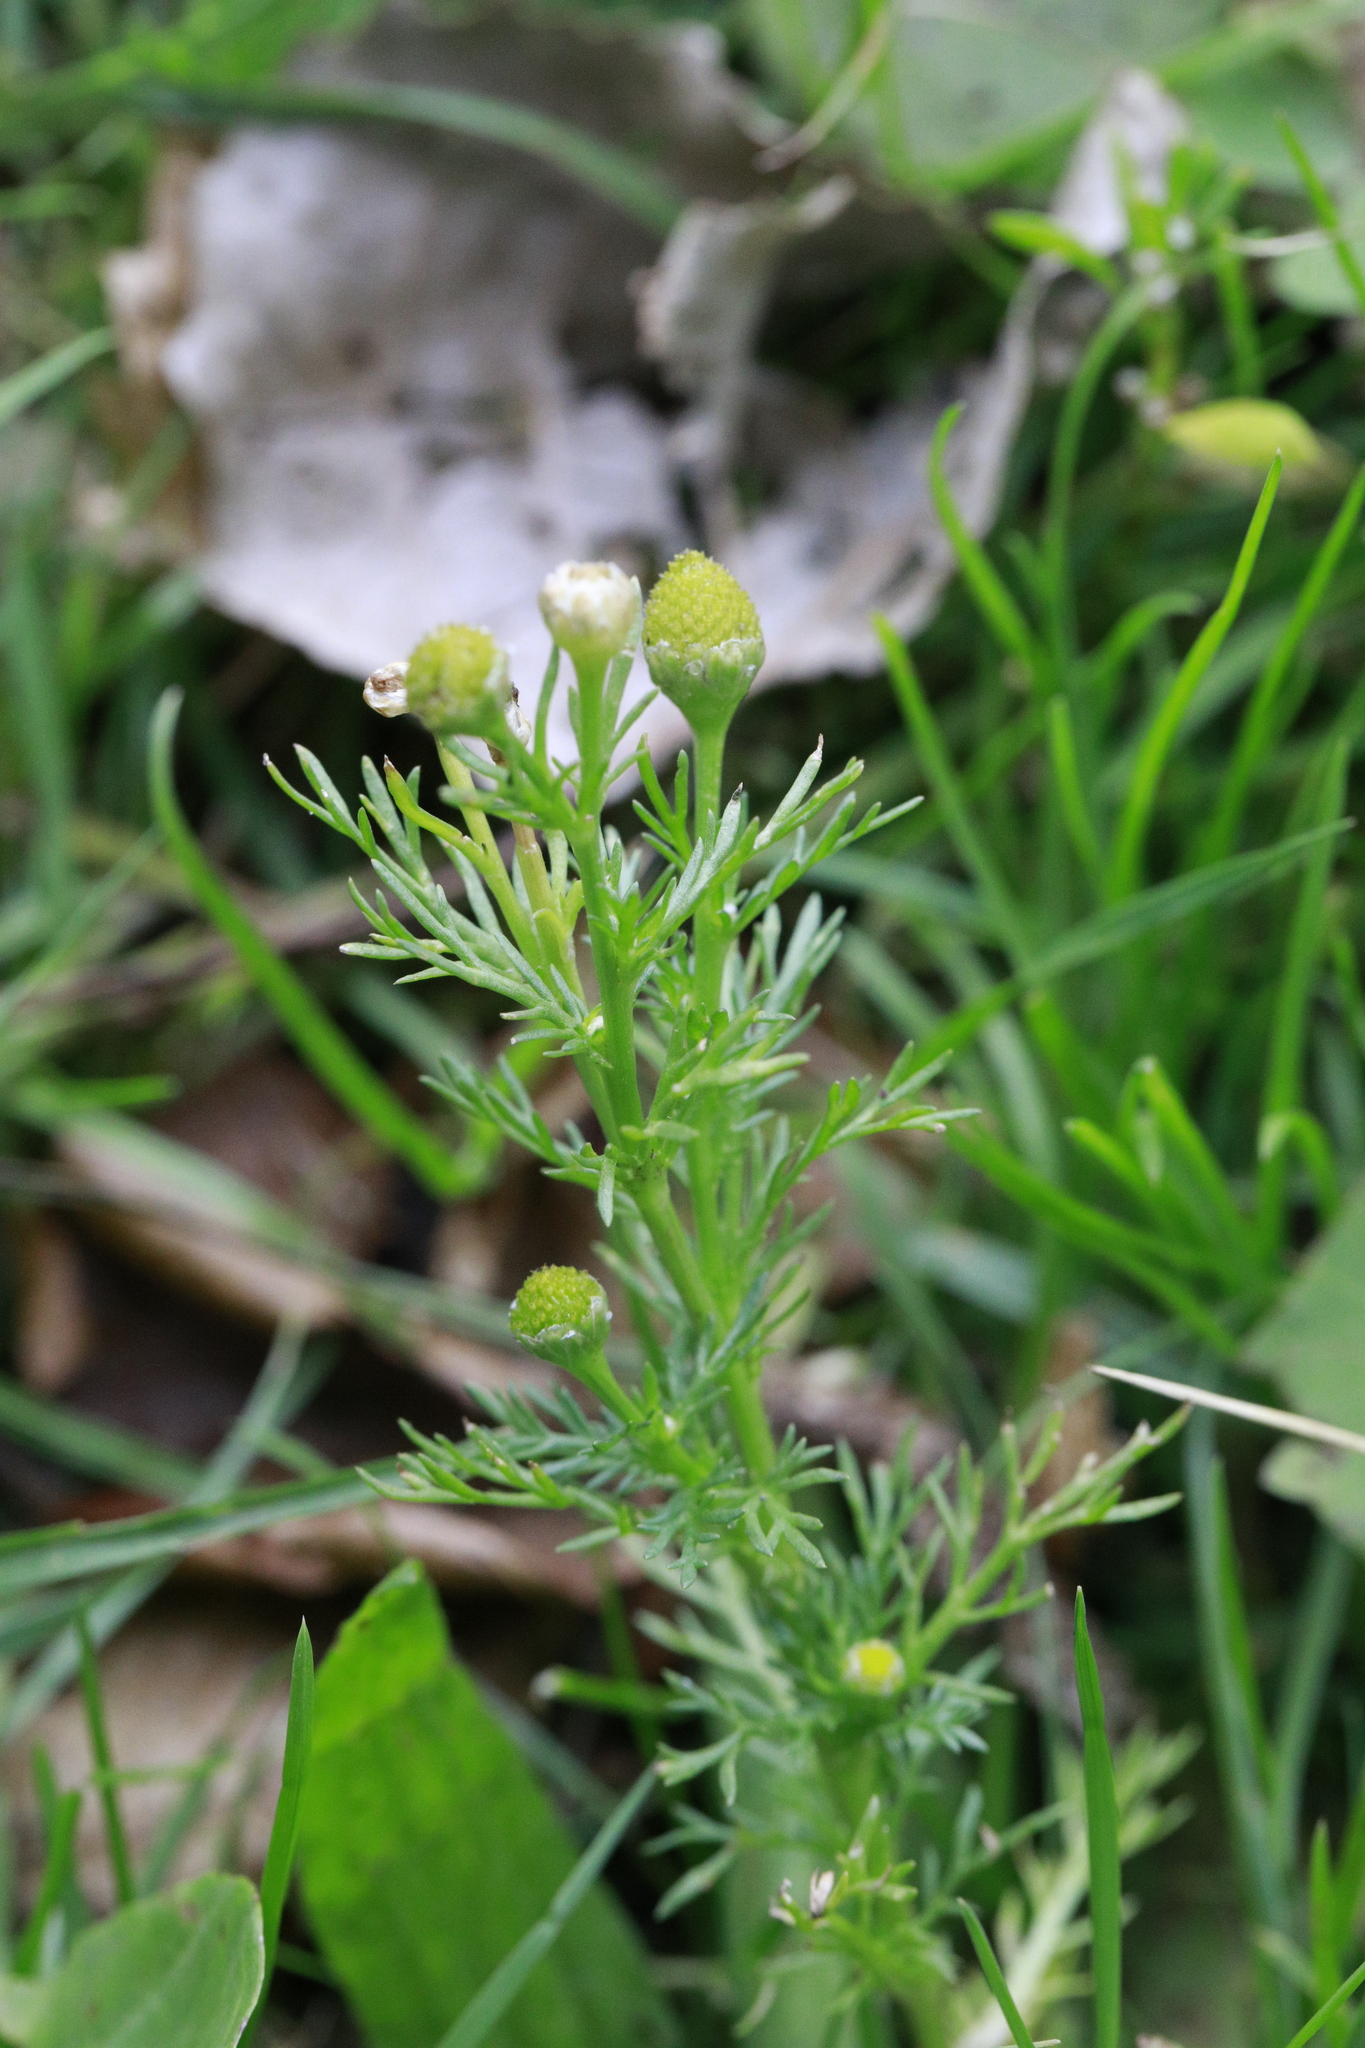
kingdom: Plantae
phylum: Tracheophyta
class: Magnoliopsida
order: Asterales
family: Asteraceae
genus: Matricaria
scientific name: Matricaria discoidea
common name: Disc mayweed
